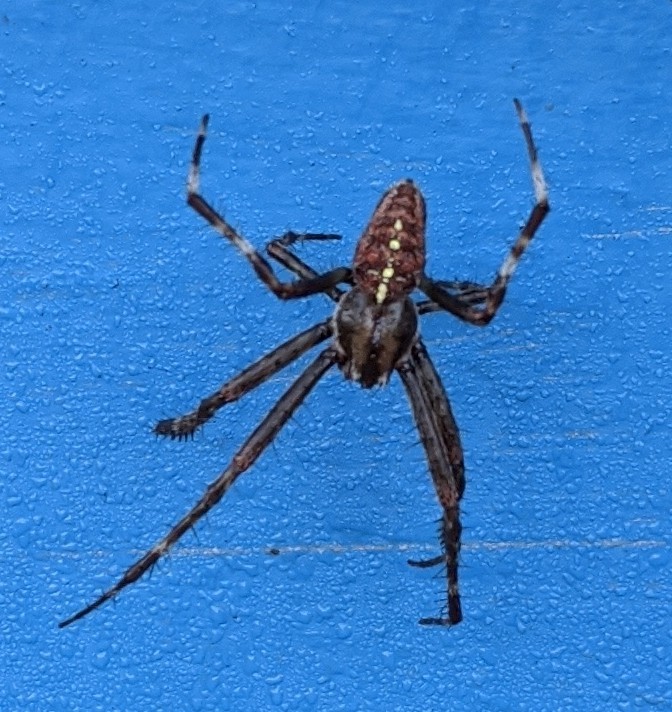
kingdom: Animalia
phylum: Arthropoda
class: Arachnida
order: Araneae
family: Araneidae
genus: Araneus
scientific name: Araneus diadematus
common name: Cross orbweaver
